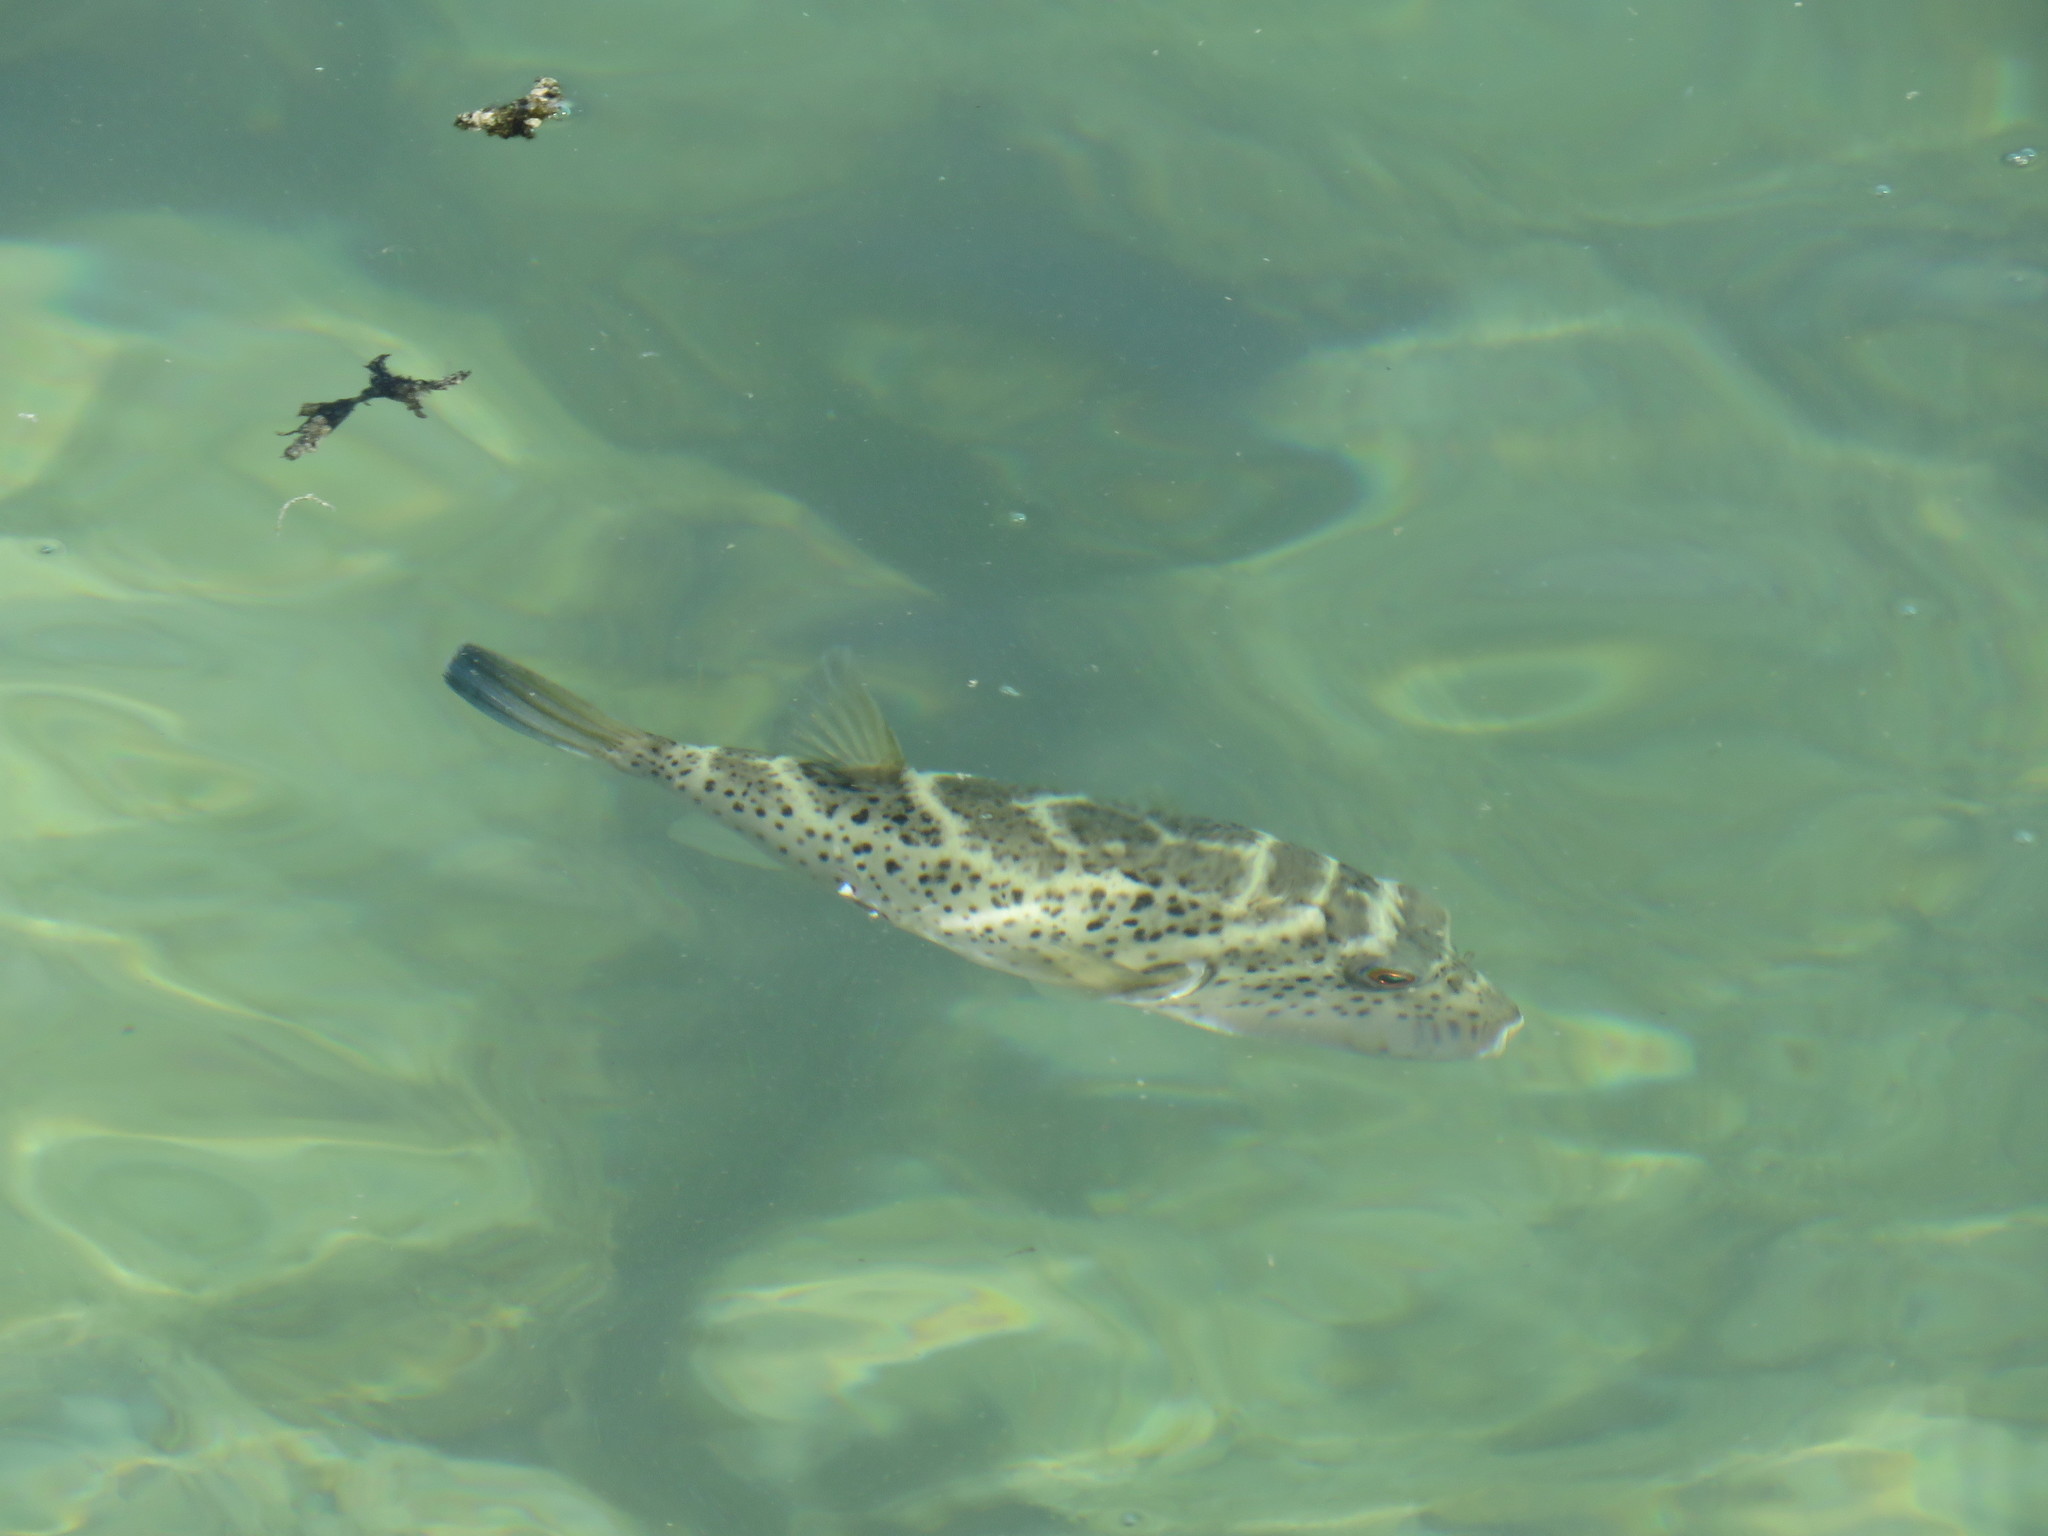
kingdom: Animalia
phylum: Chordata
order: Tetraodontiformes
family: Tetraodontidae
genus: Sphoeroides
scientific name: Sphoeroides annulatus
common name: Bullseye puffer
